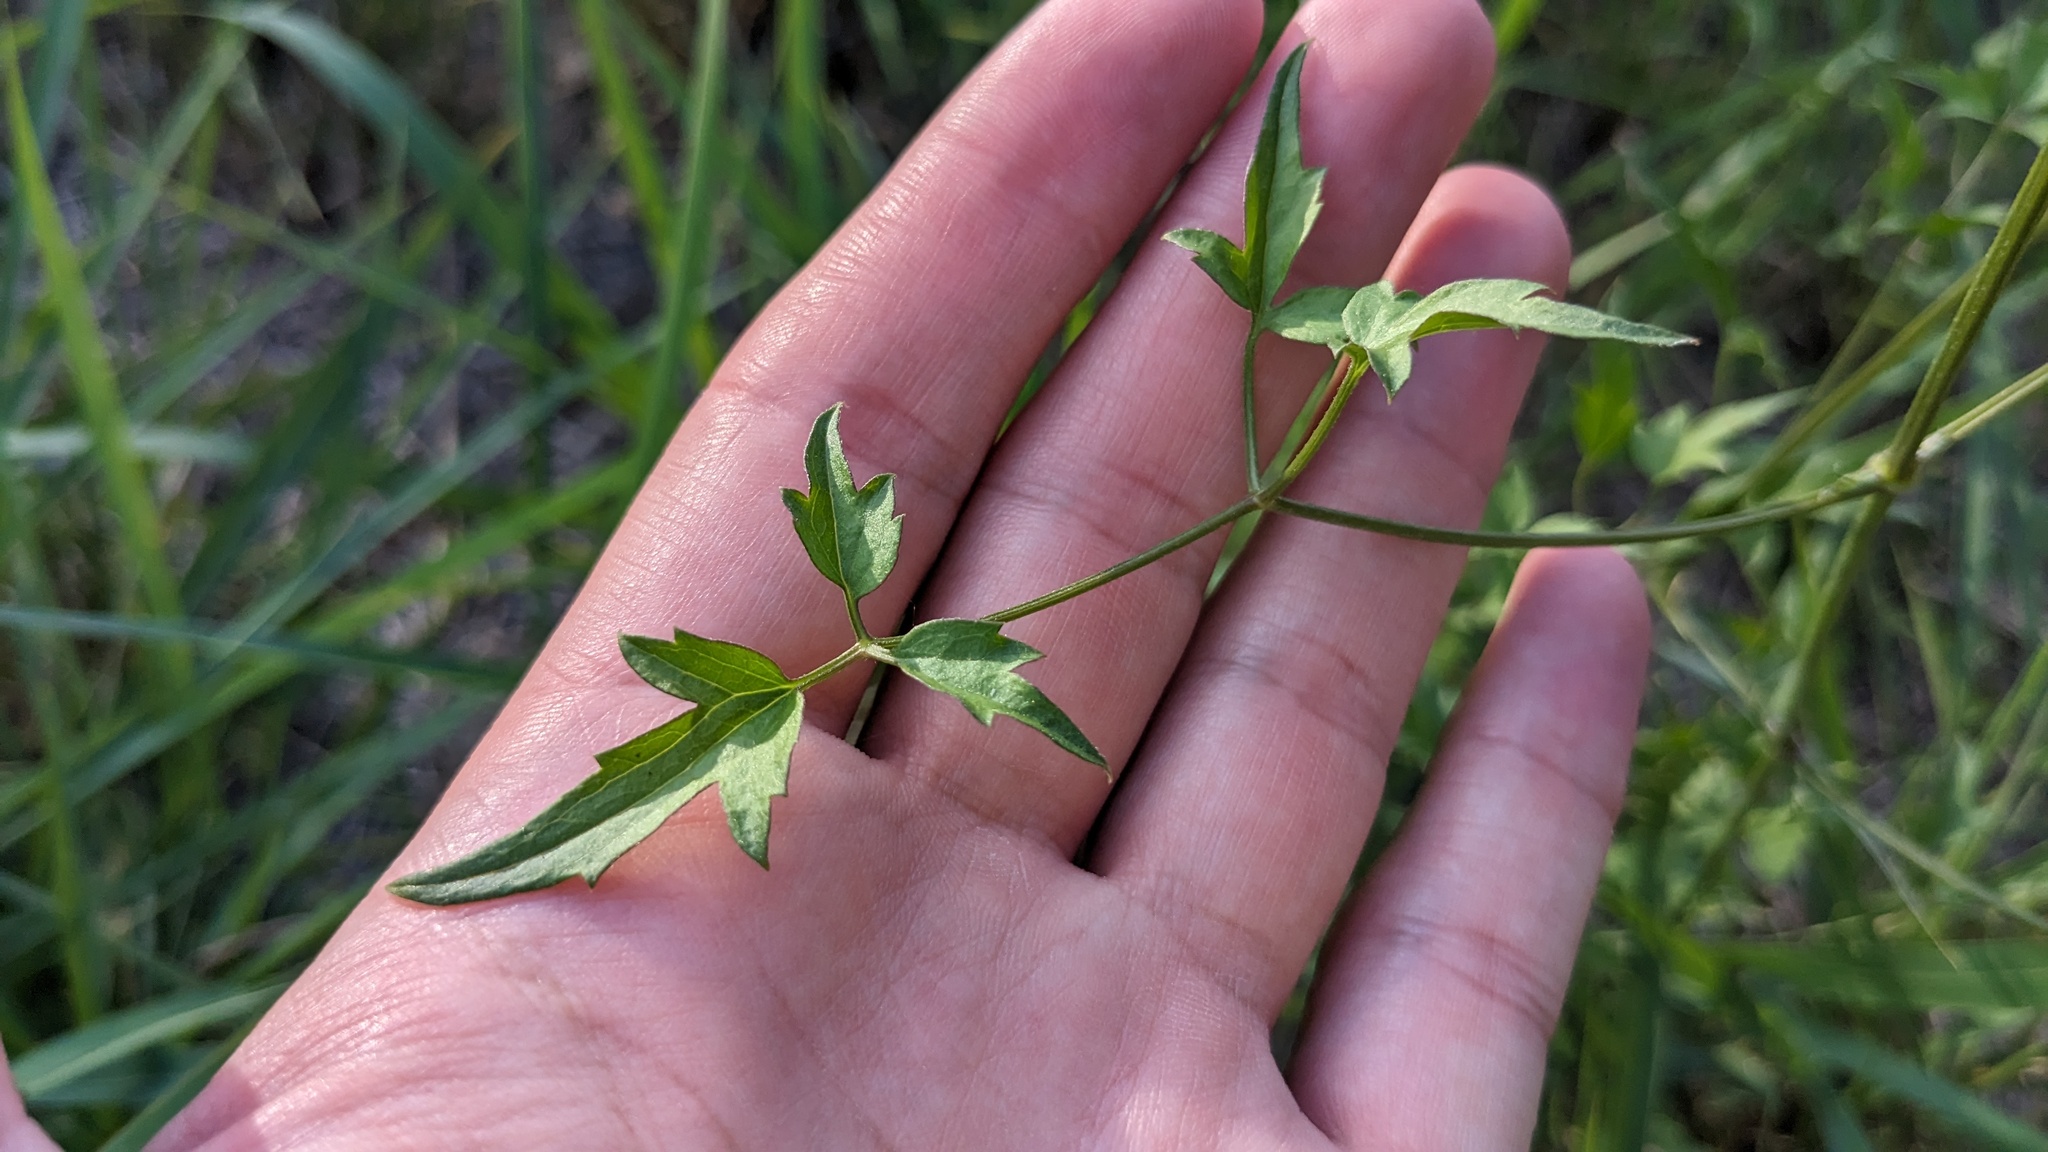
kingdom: Plantae
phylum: Tracheophyta
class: Magnoliopsida
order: Ranunculales
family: Ranunculaceae
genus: Clematis
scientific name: Clematis drummondii
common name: Texas virgin's bower
